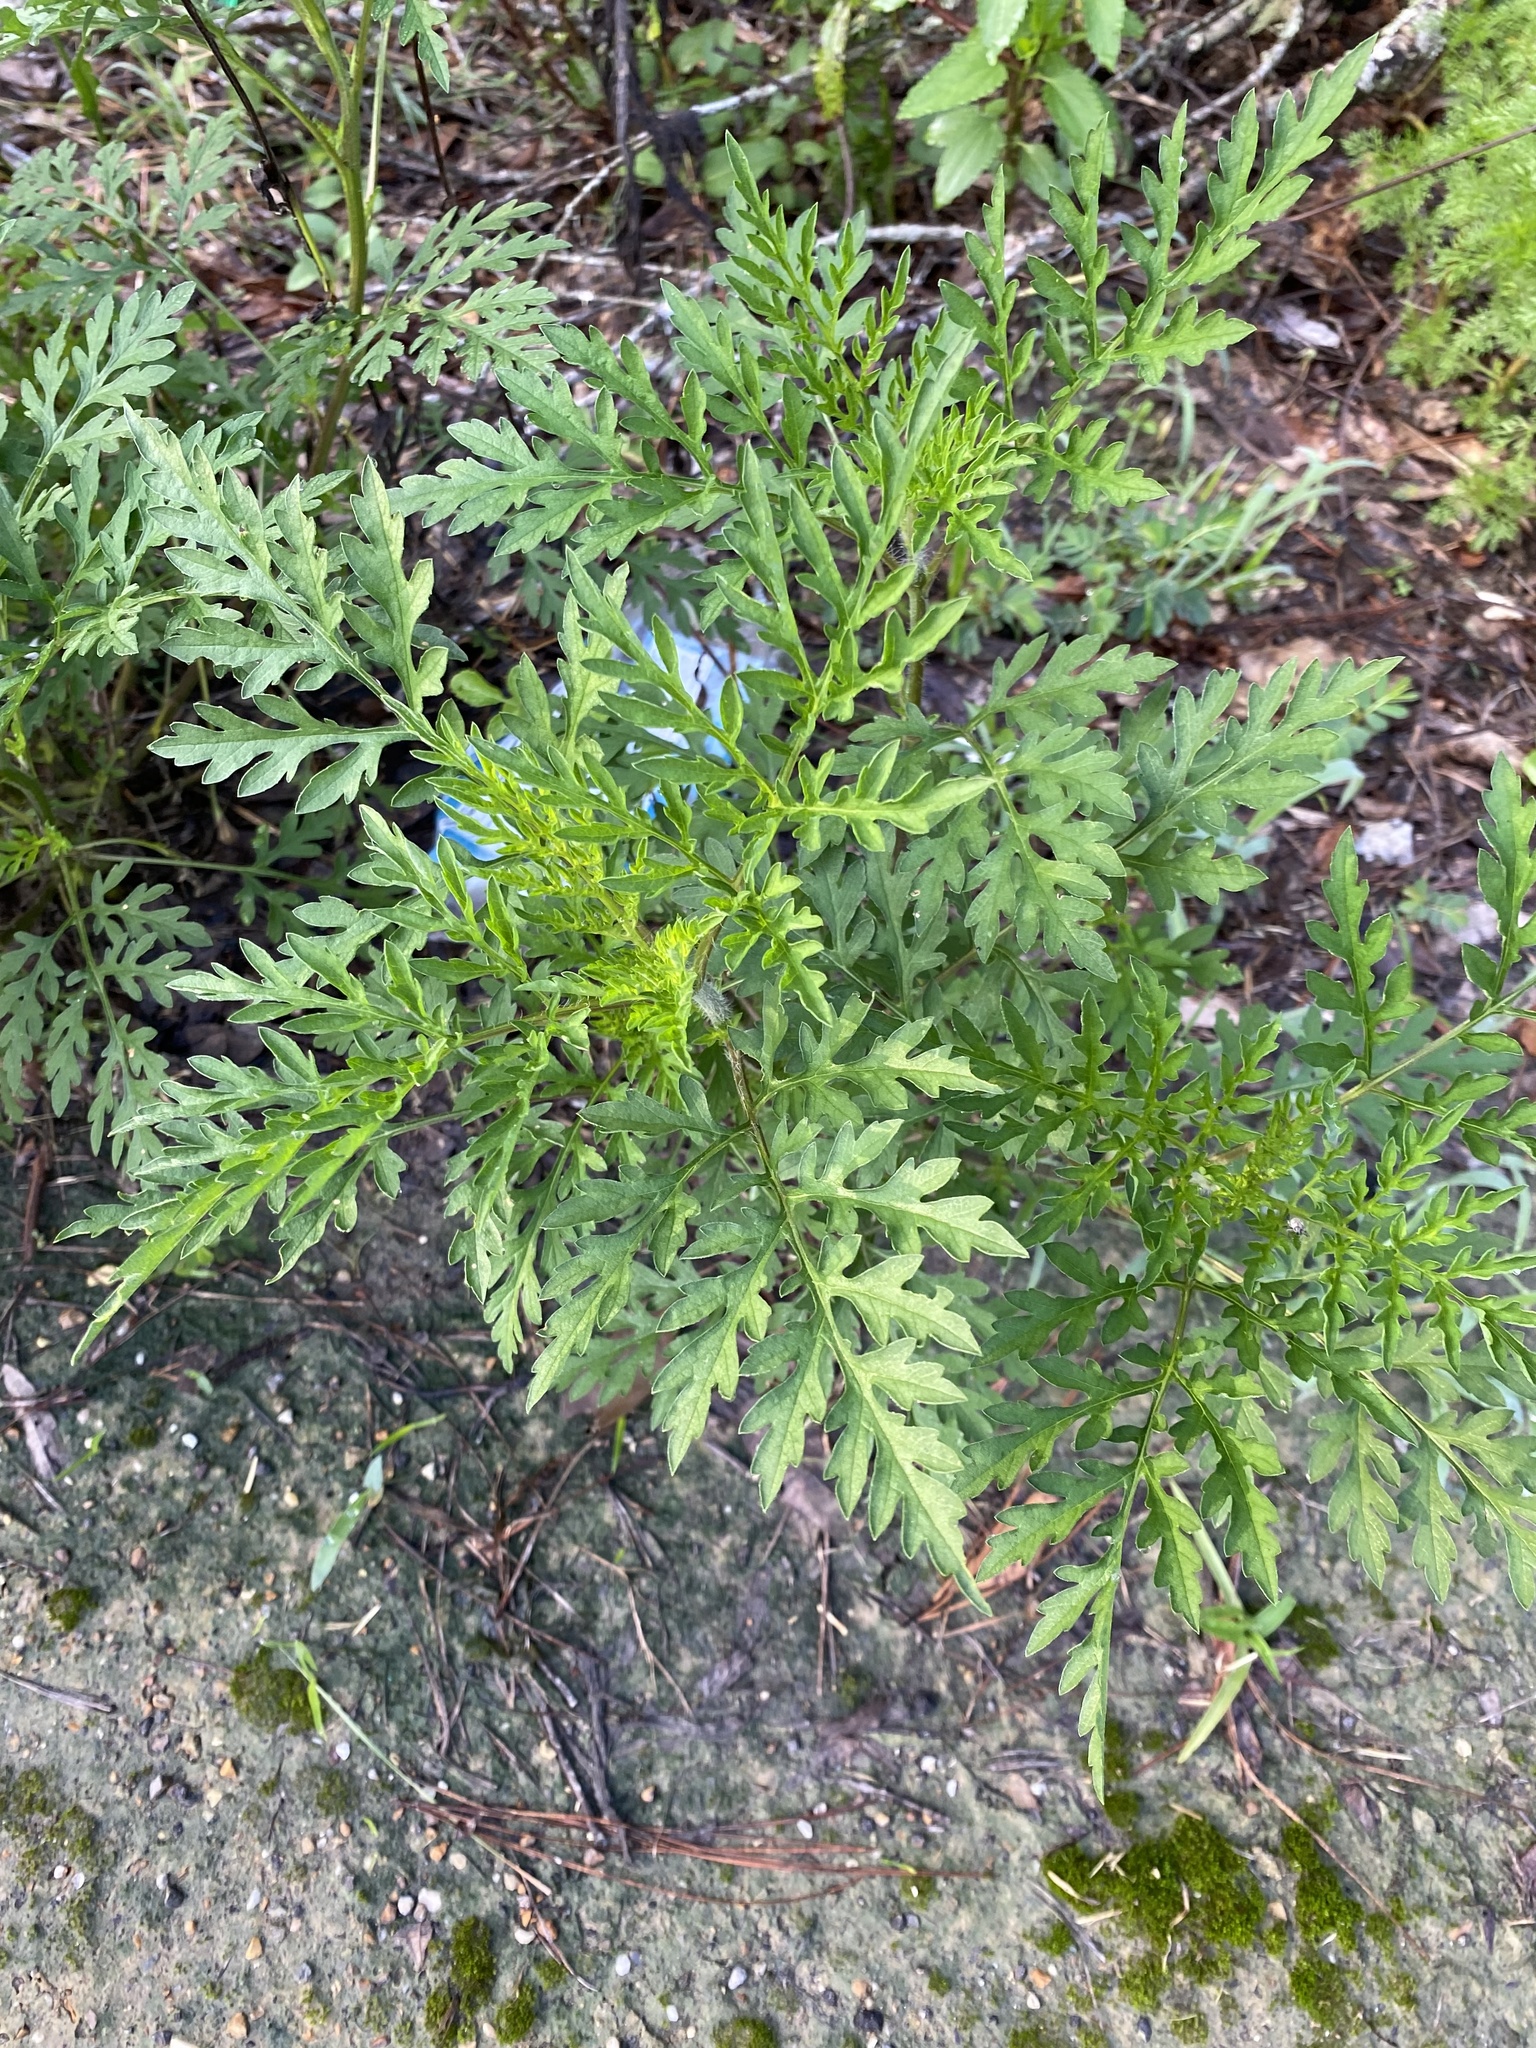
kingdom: Plantae
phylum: Tracheophyta
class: Magnoliopsida
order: Asterales
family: Asteraceae
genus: Ambrosia
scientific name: Ambrosia artemisiifolia
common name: Annual ragweed
